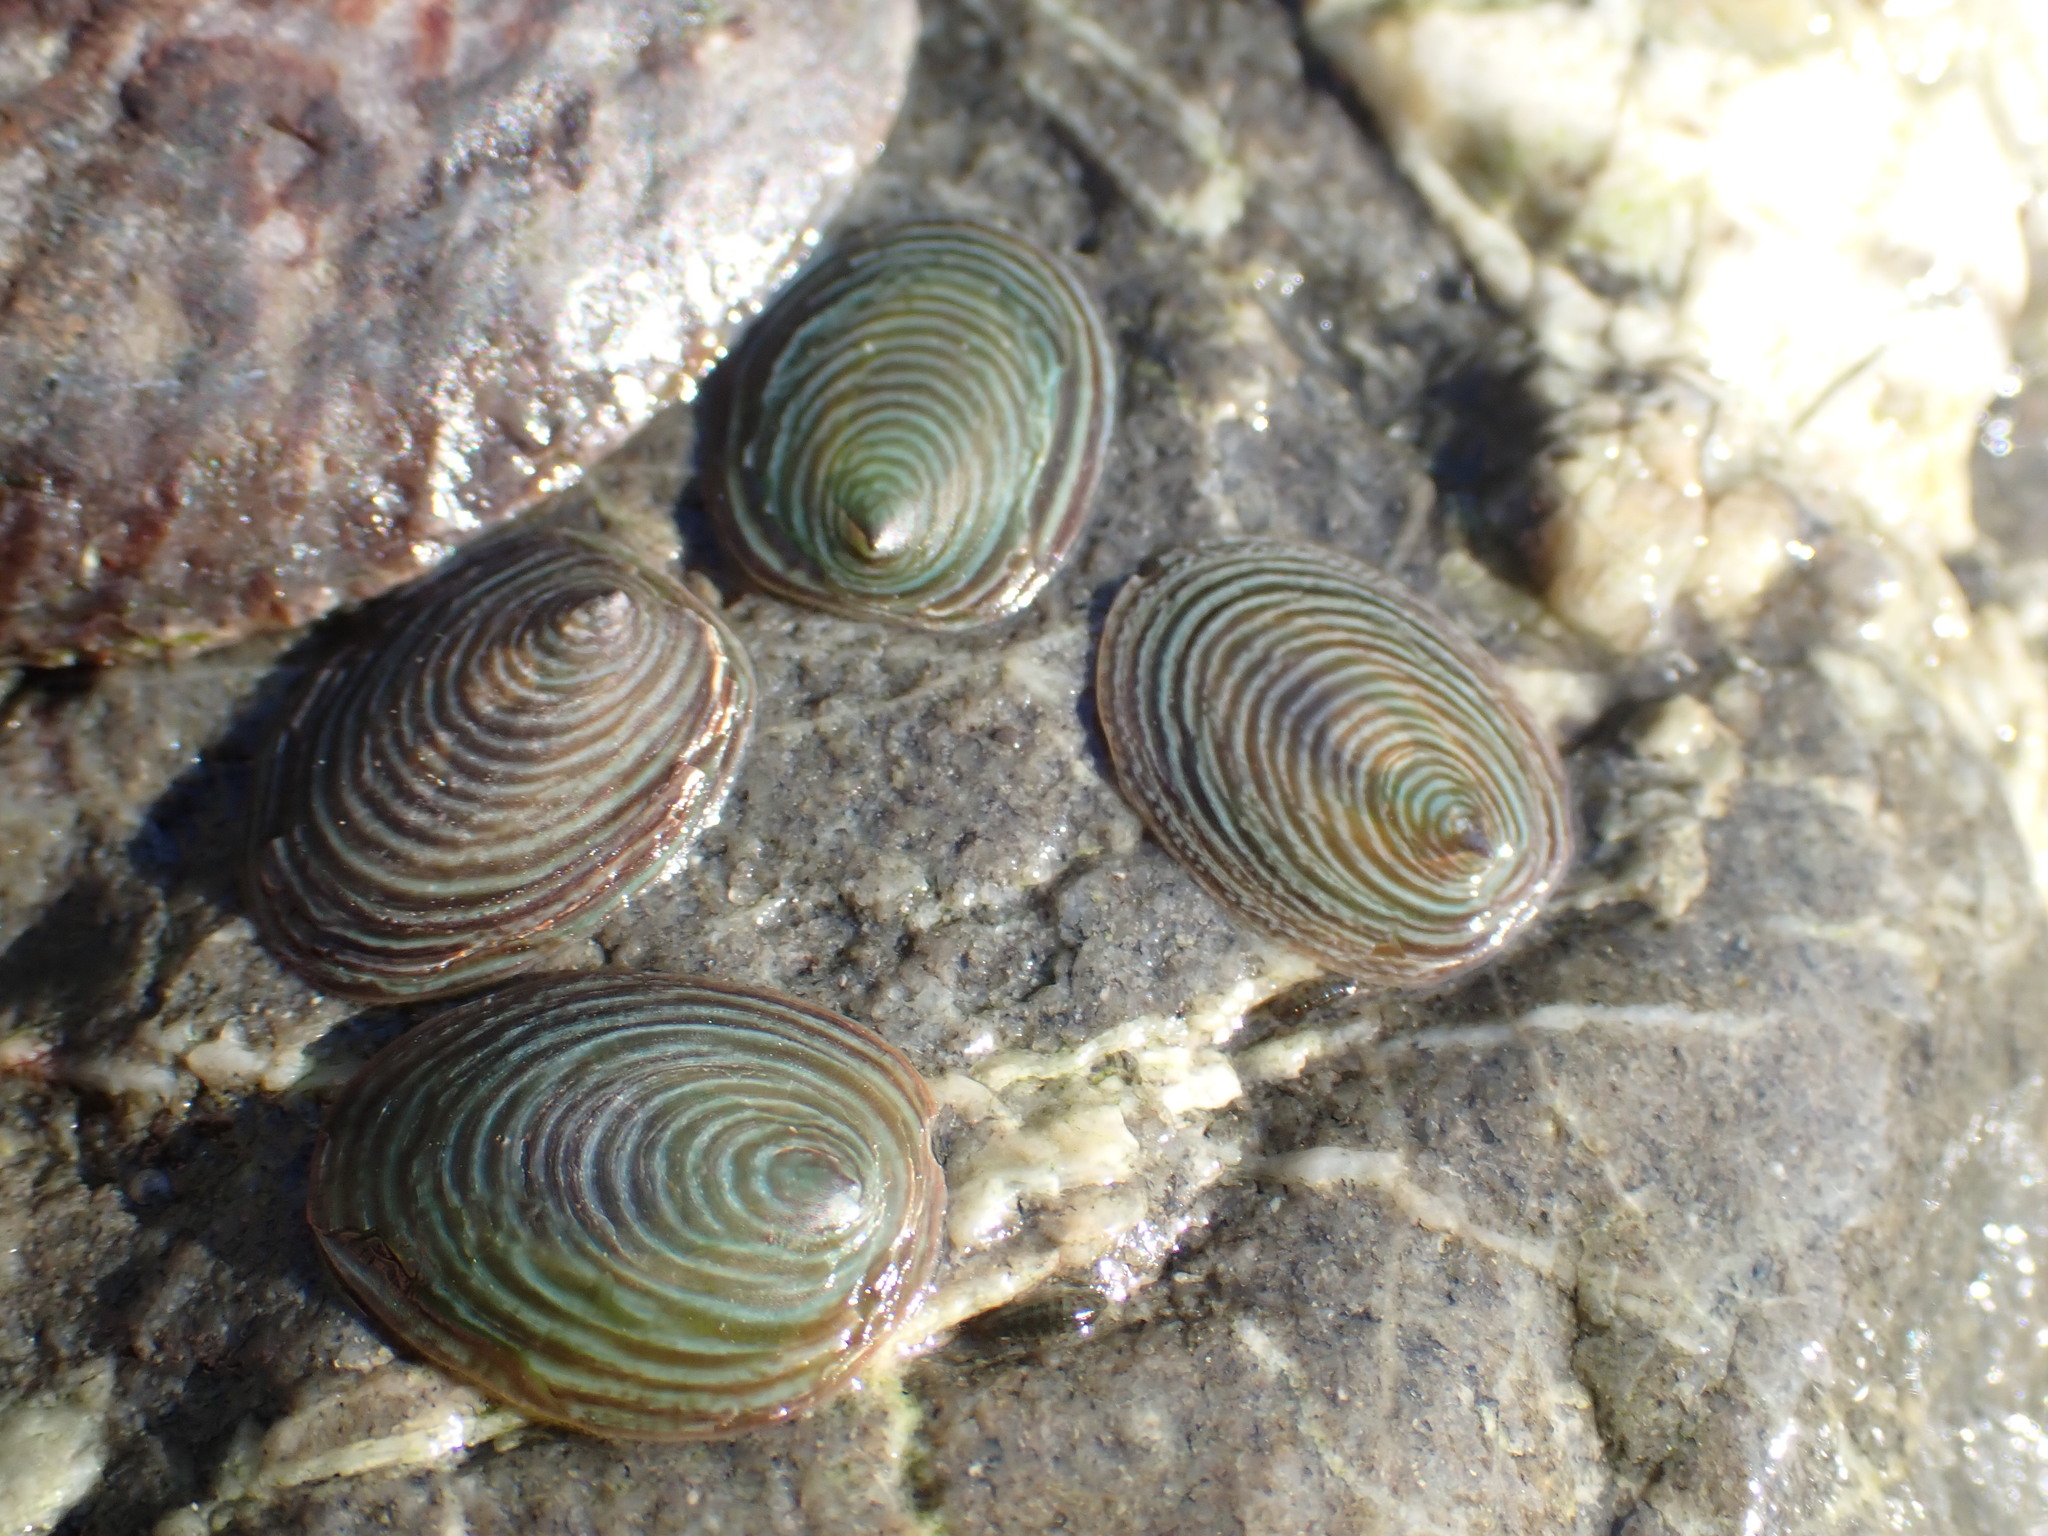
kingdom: Animalia
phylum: Mollusca
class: Gastropoda
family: Lottiidae
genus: Atalacmea
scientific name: Atalacmea fragilis
